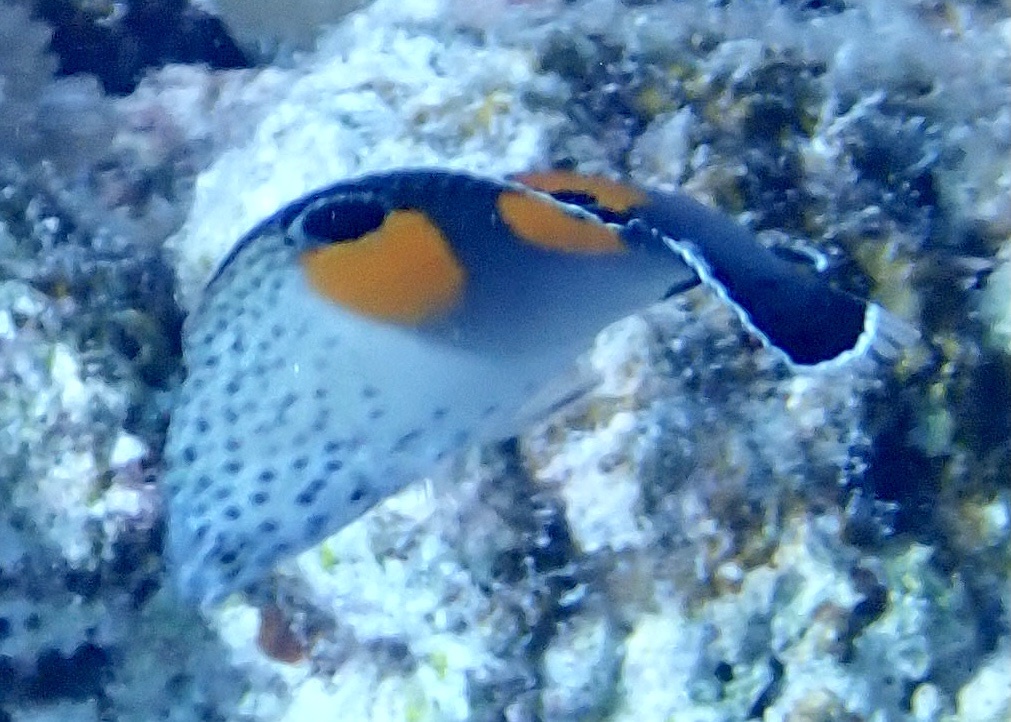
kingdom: Animalia
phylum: Chordata
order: Perciformes
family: Labridae
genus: Coris
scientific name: Coris aygula
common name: Clown coris
